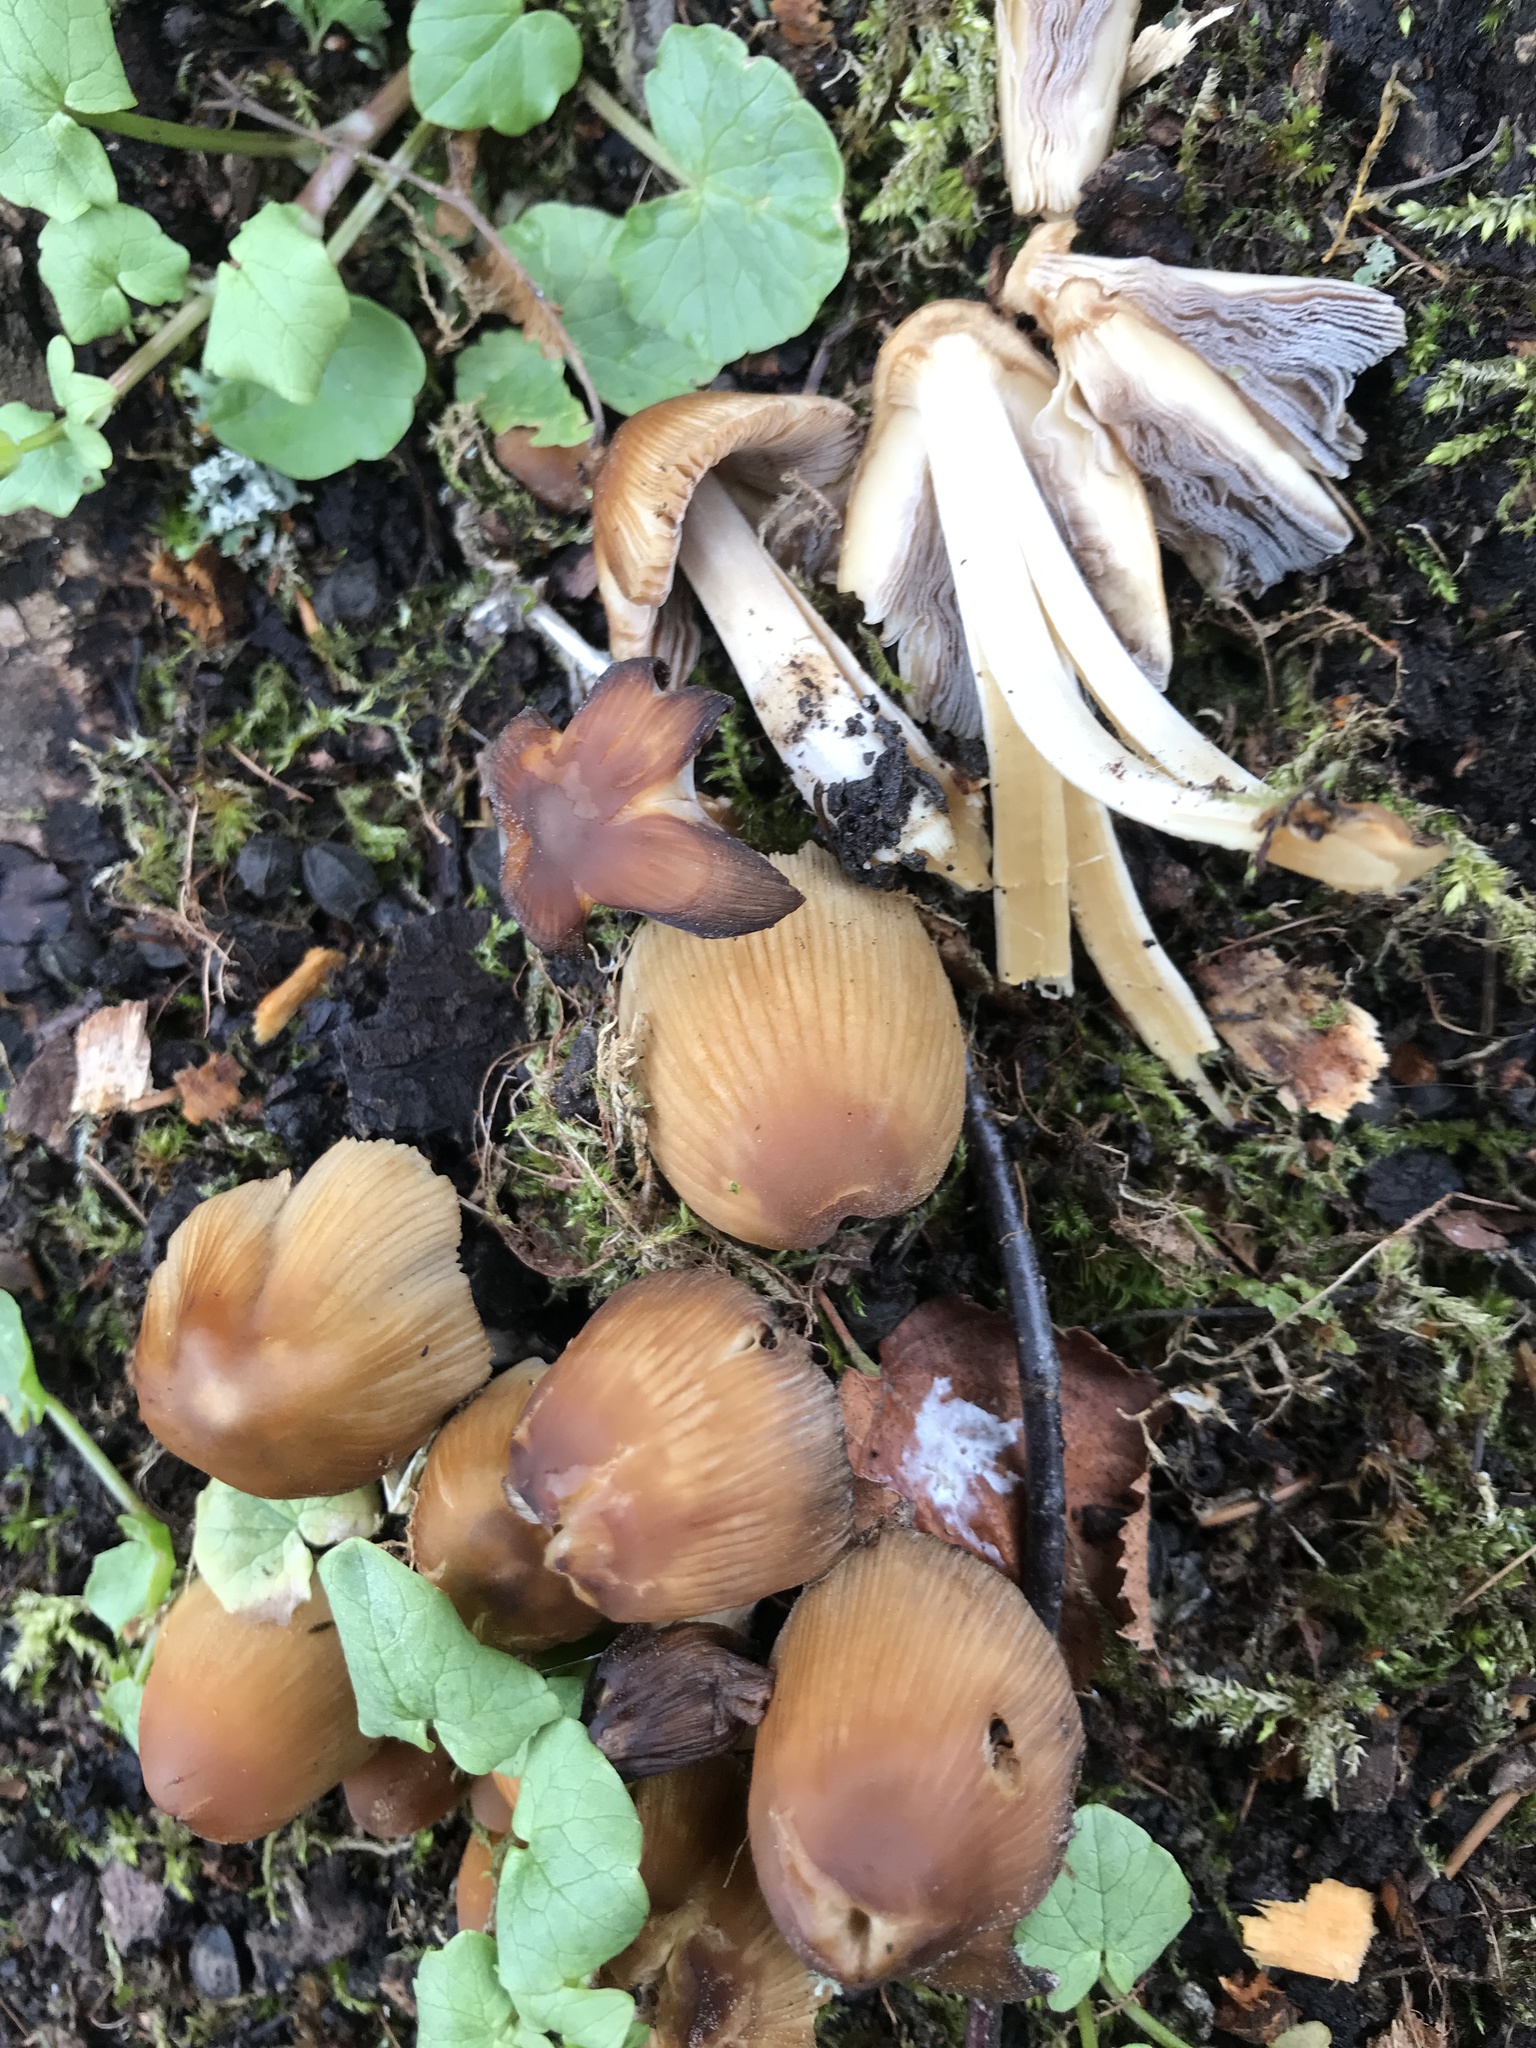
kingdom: Fungi
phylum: Basidiomycota
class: Agaricomycetes
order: Agaricales
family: Psathyrellaceae
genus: Coprinellus
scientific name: Coprinellus micaceus
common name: Glistening ink-cap
